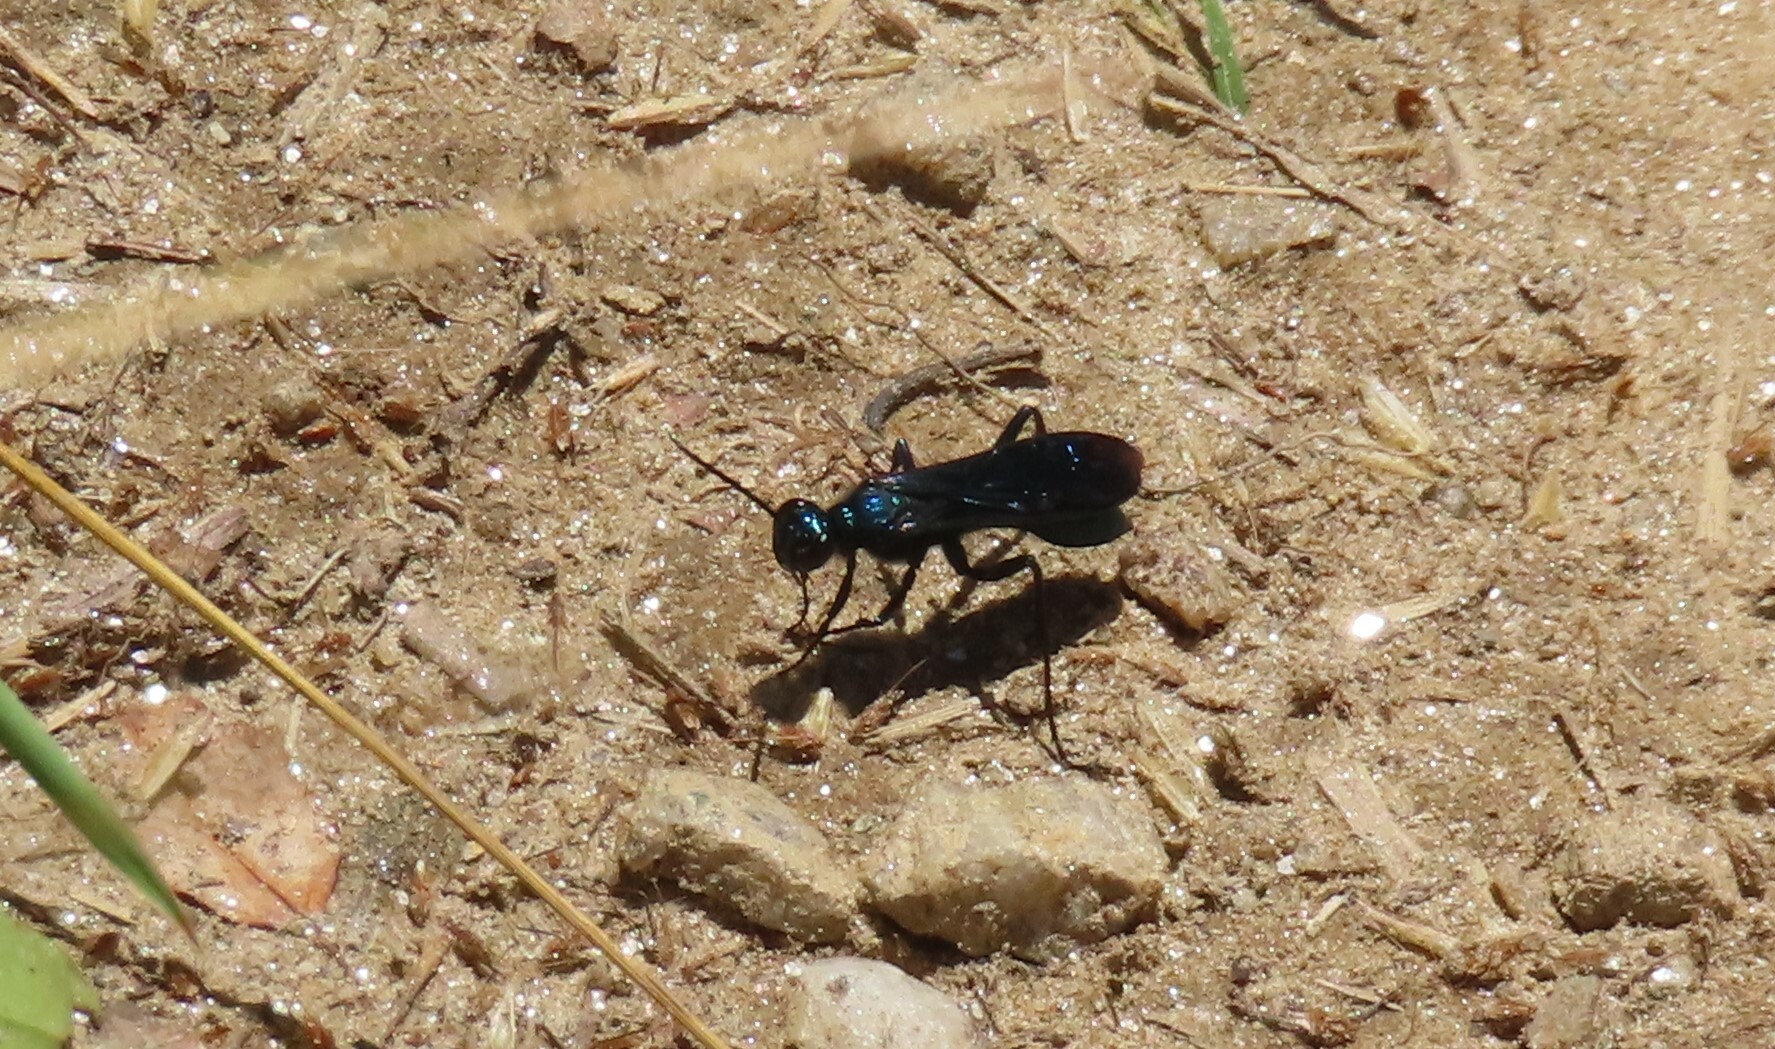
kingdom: Animalia
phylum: Arthropoda
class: Insecta
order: Hymenoptera
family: Sphecidae
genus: Chalybion
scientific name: Chalybion californicum
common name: Mud dauber
